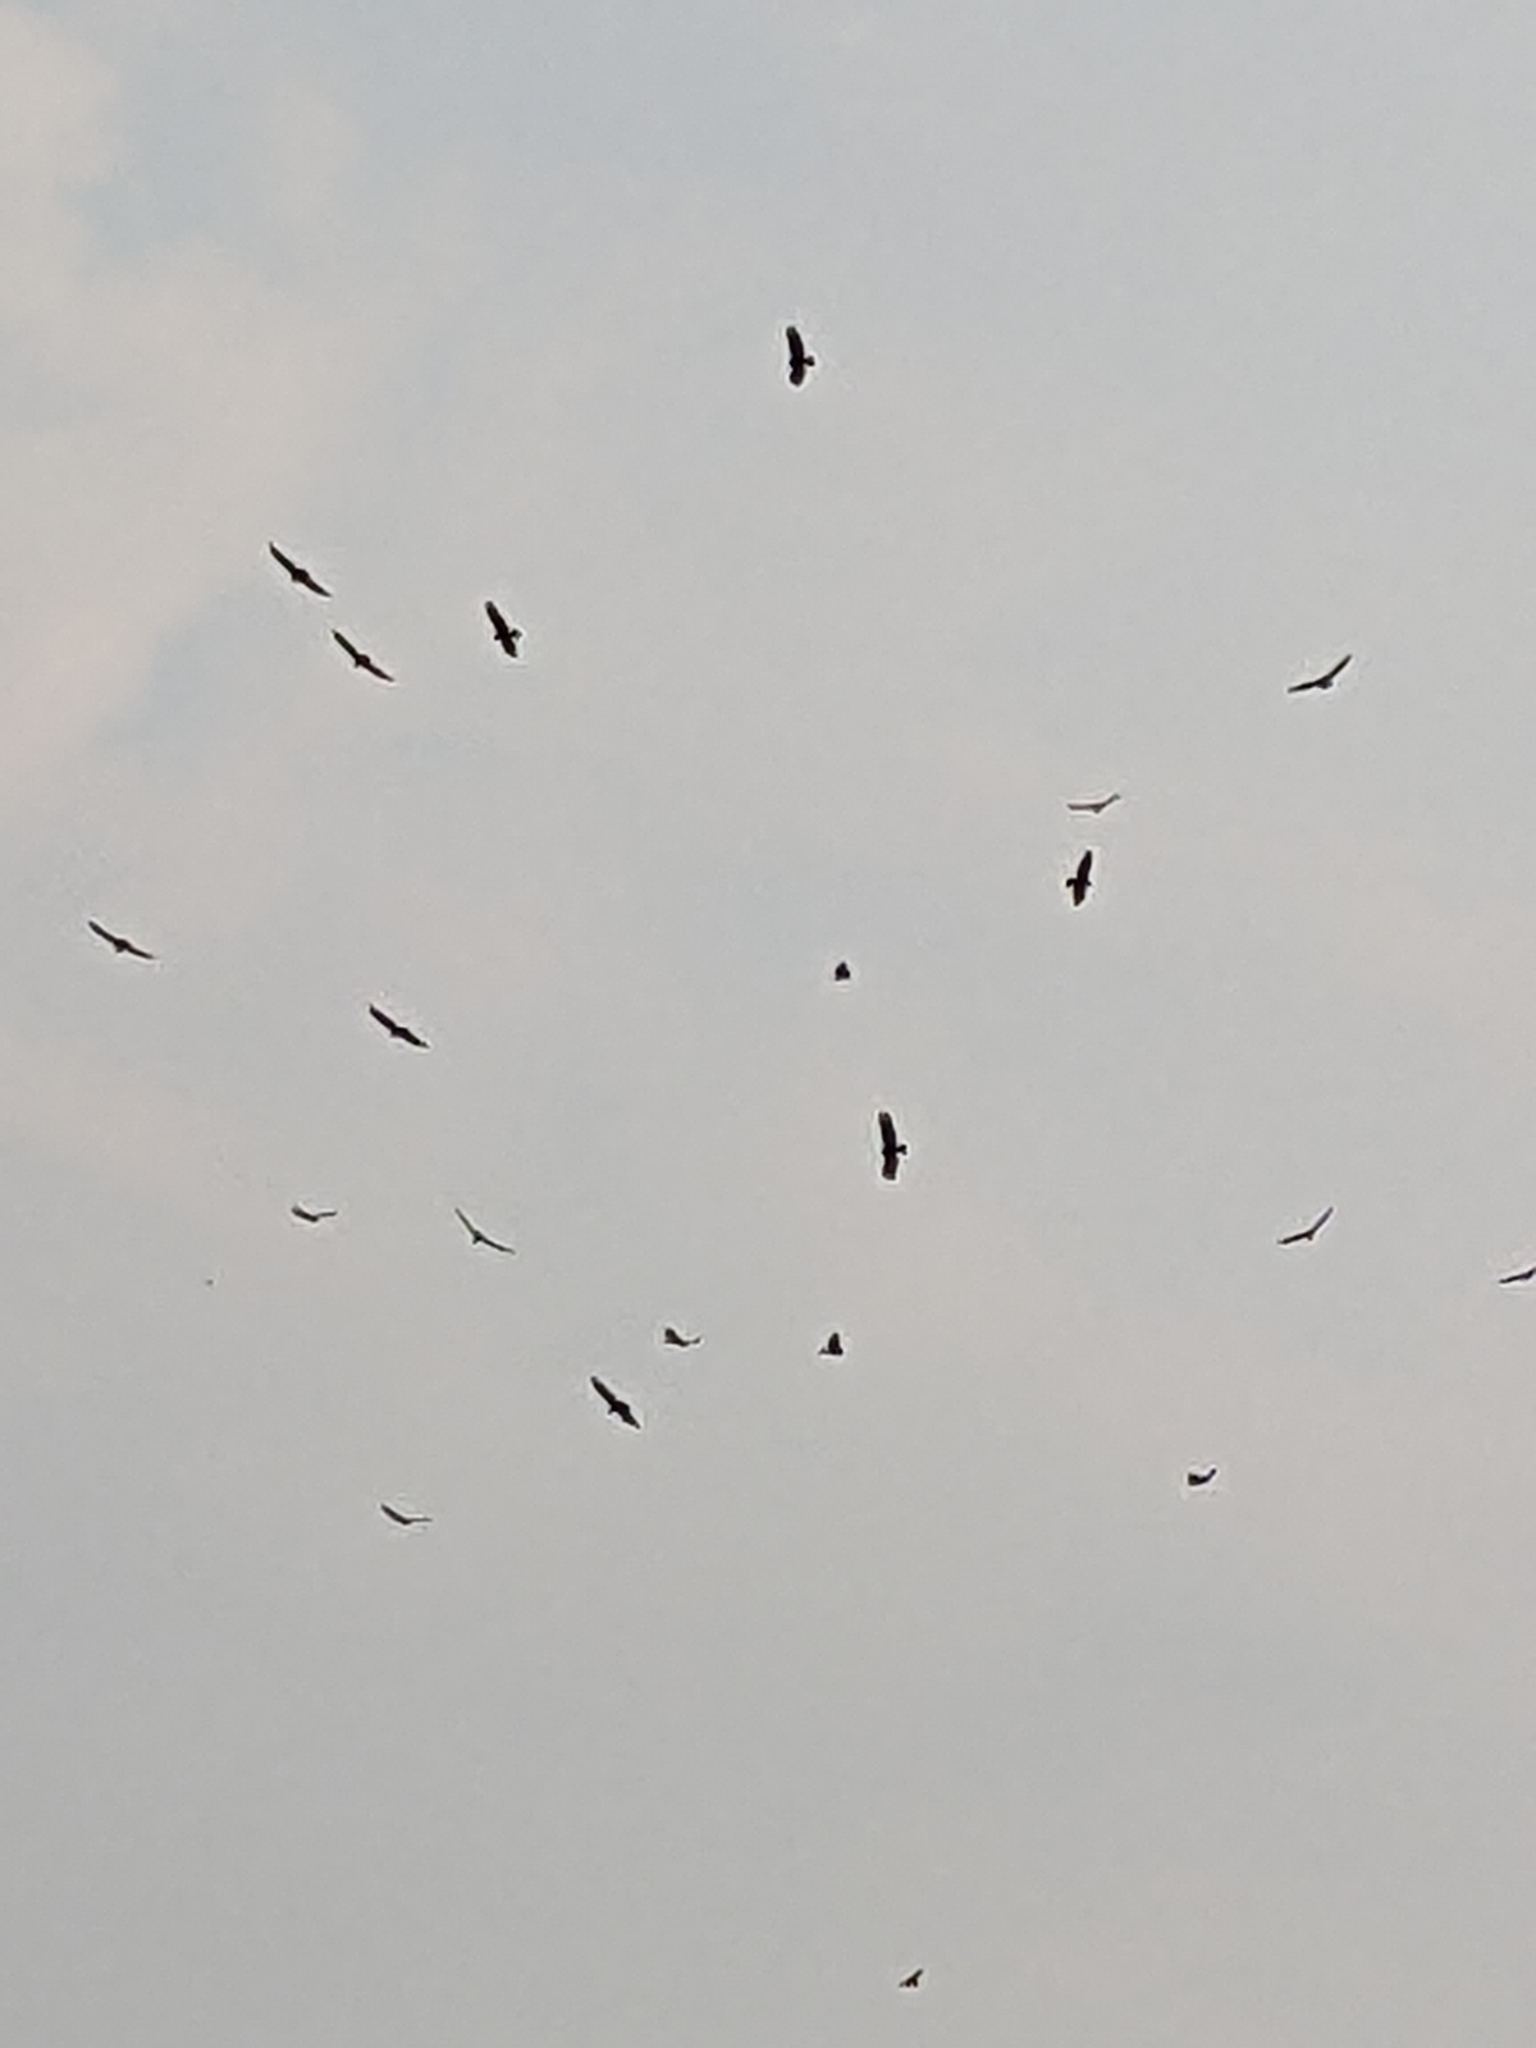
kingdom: Animalia
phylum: Chordata
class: Aves
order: Accipitriformes
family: Cathartidae
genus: Cathartes
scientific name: Cathartes aura
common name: Turkey vulture
